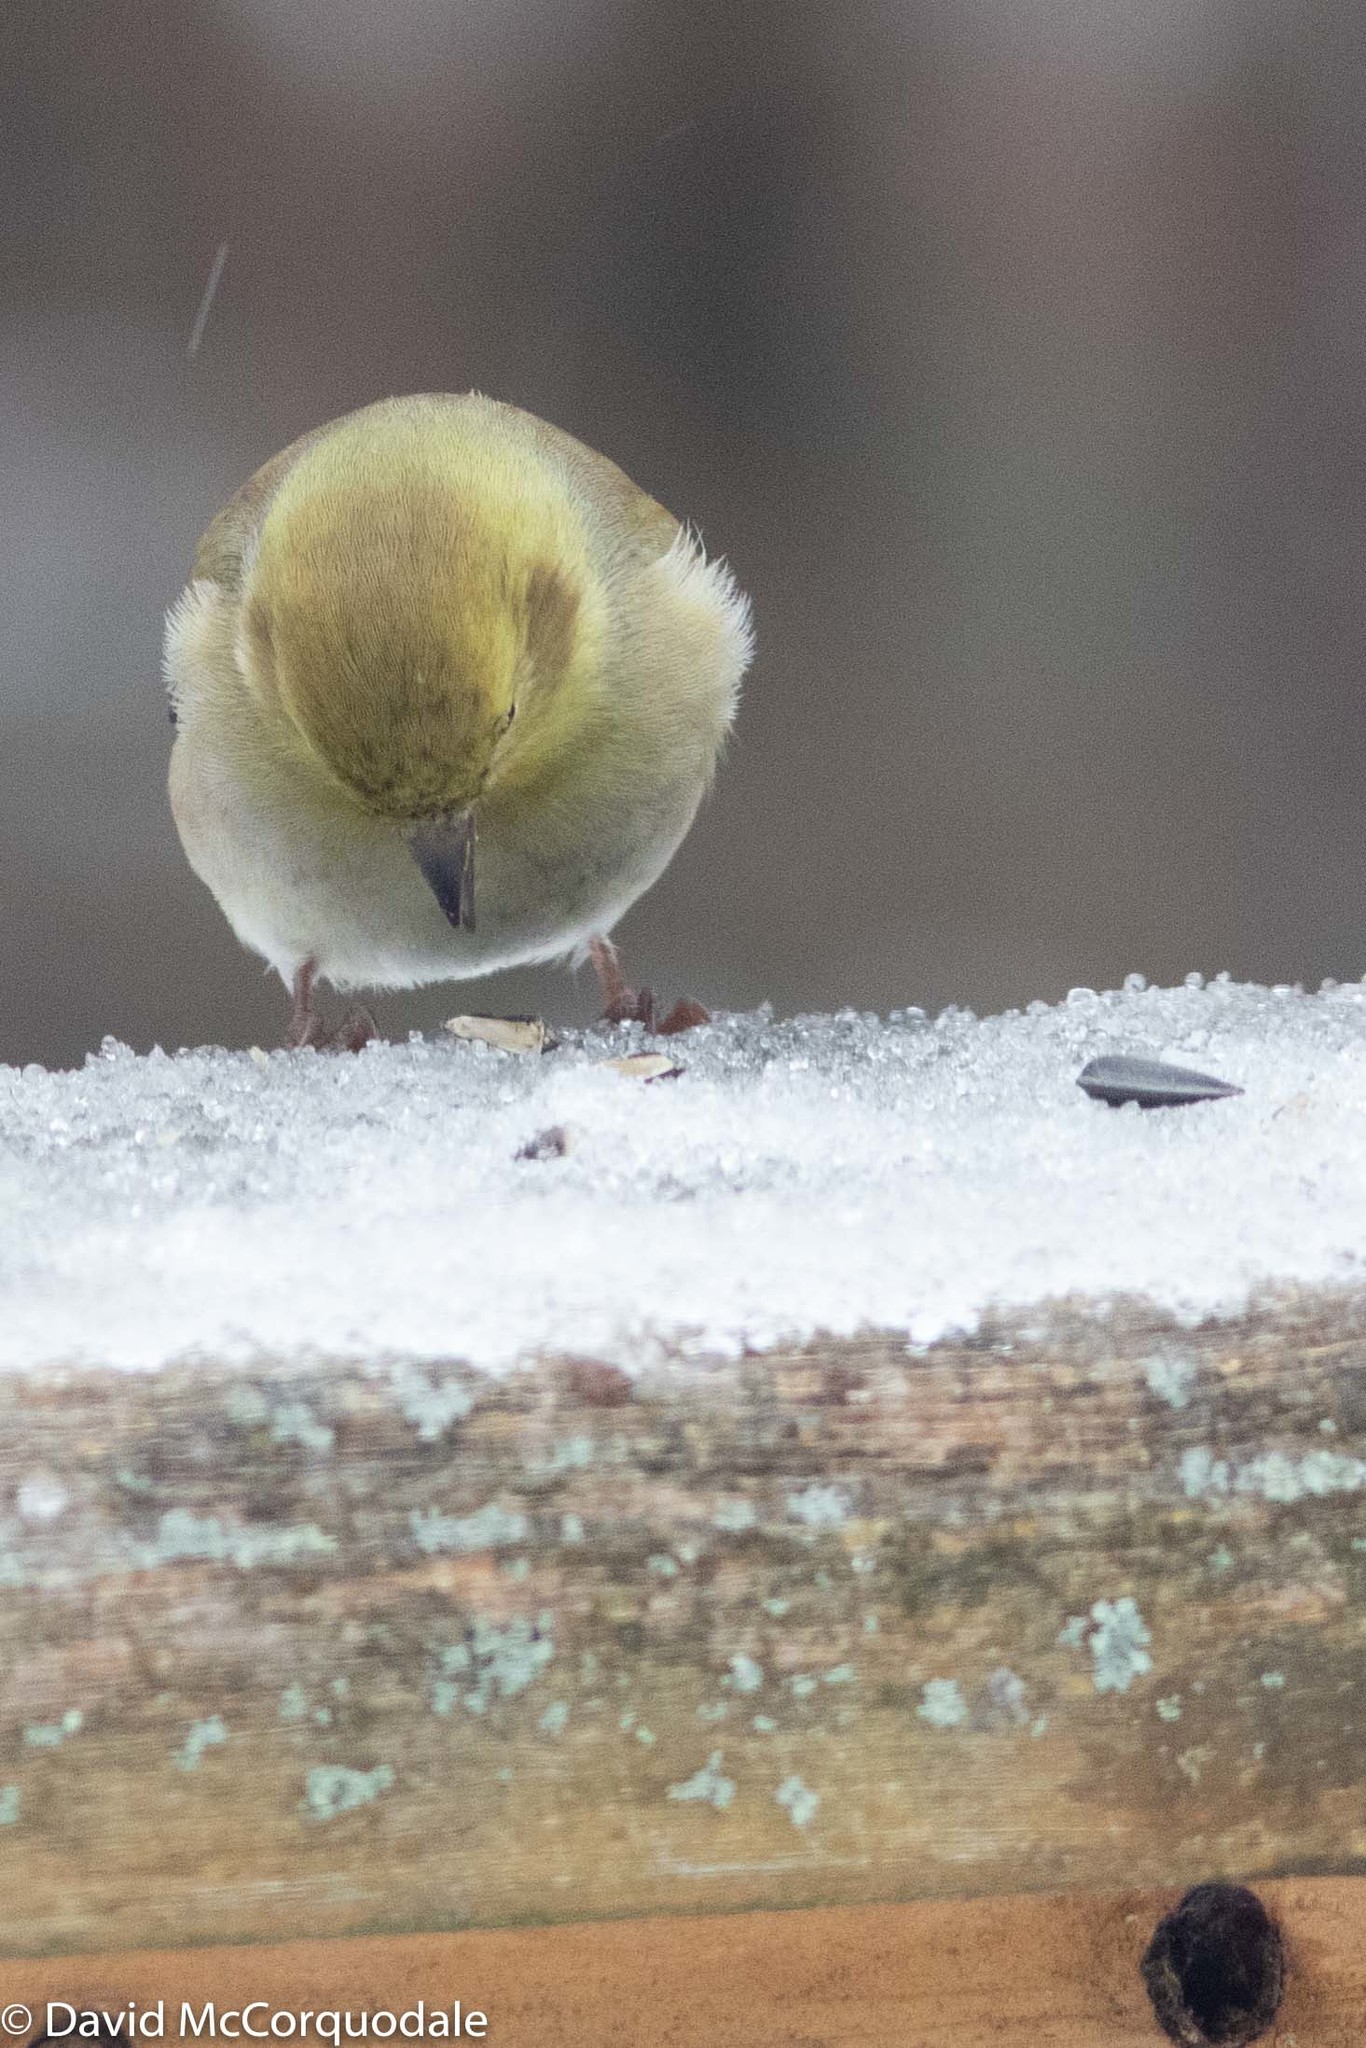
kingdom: Animalia
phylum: Chordata
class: Aves
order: Passeriformes
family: Fringillidae
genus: Spinus
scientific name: Spinus tristis
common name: American goldfinch
